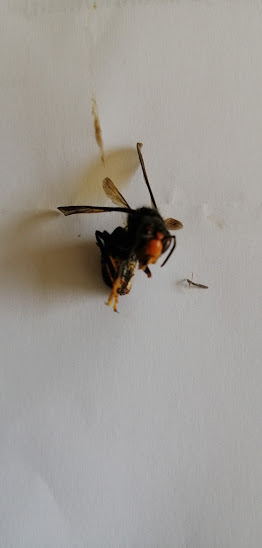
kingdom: Animalia
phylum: Arthropoda
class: Insecta
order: Hymenoptera
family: Vespidae
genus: Vespa
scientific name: Vespa velutina
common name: Asian hornet
